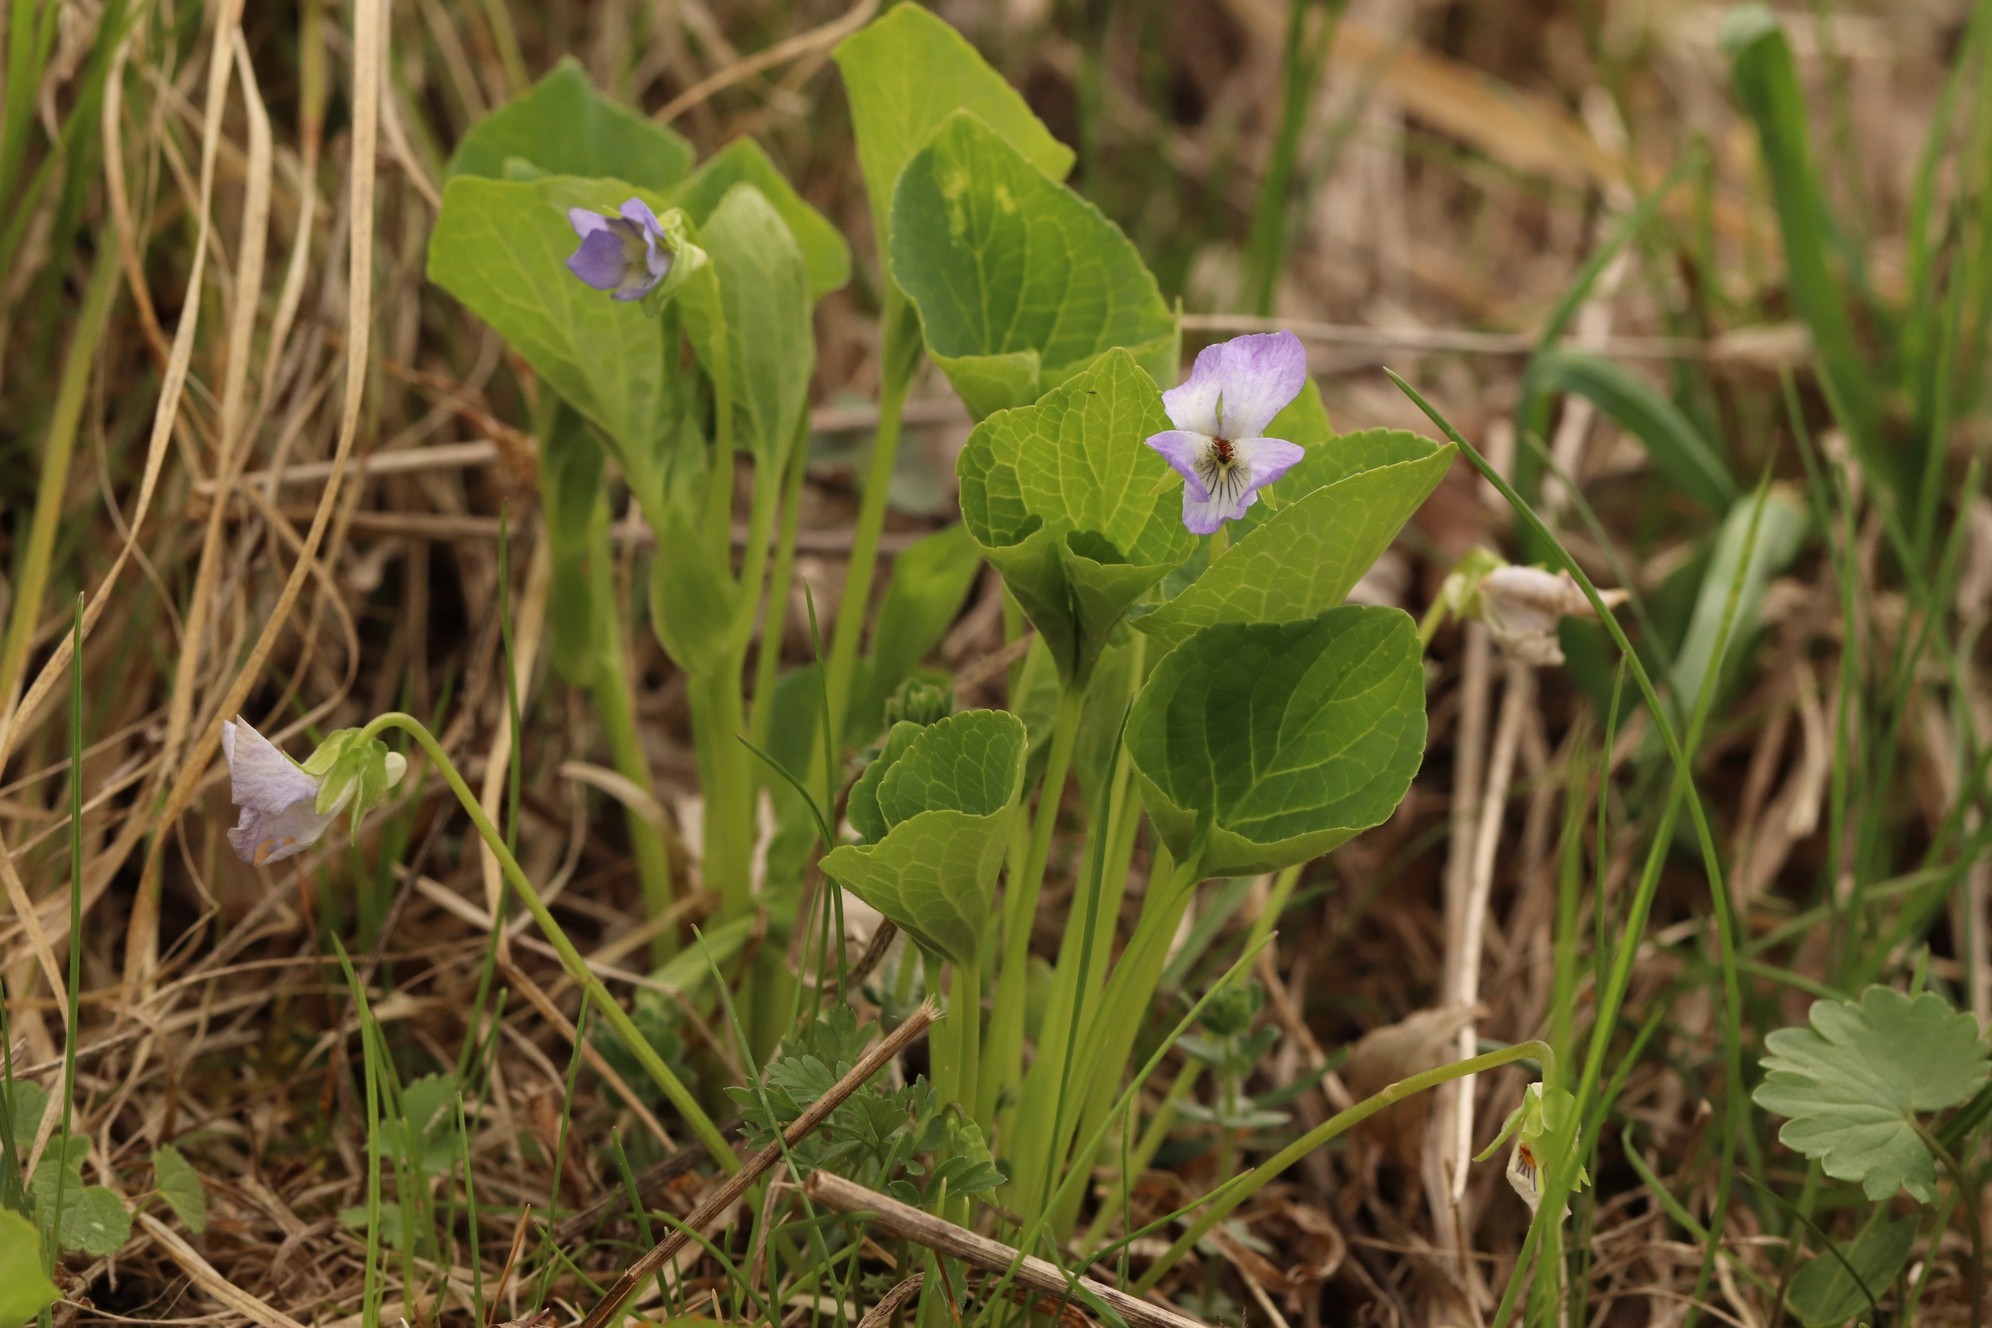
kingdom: Plantae
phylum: Tracheophyta
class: Magnoliopsida
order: Malpighiales
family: Violaceae
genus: Viola
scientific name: Viola mirabilis
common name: Wonder violet
